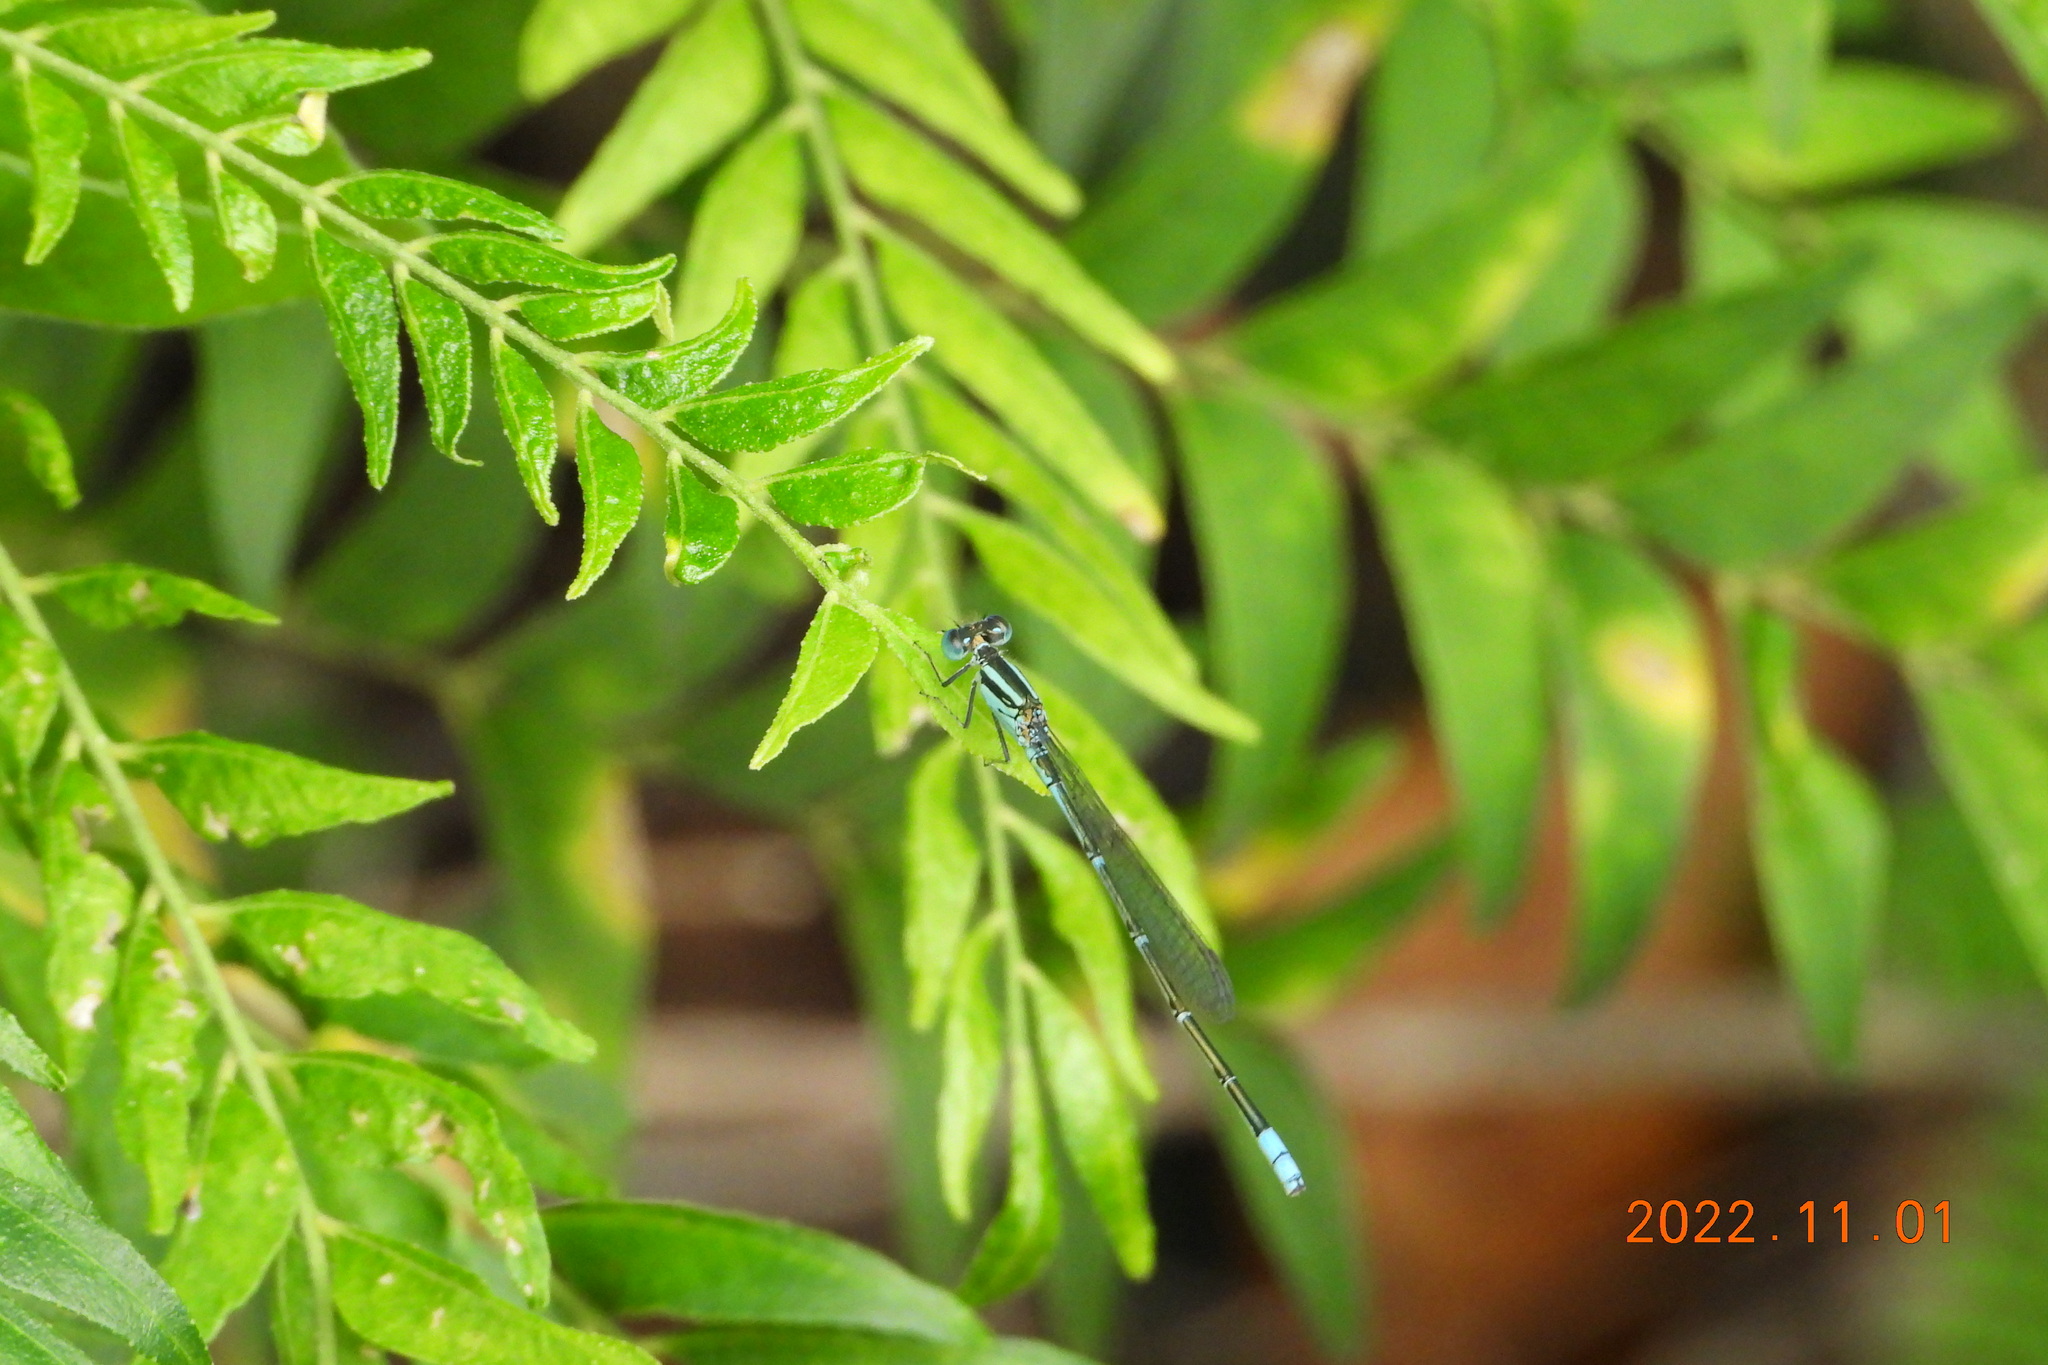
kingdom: Animalia
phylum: Arthropoda
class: Insecta
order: Odonata
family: Coenagrionidae
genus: Paracercion
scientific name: Paracercion melanotum
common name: Eastern lilysquatter
